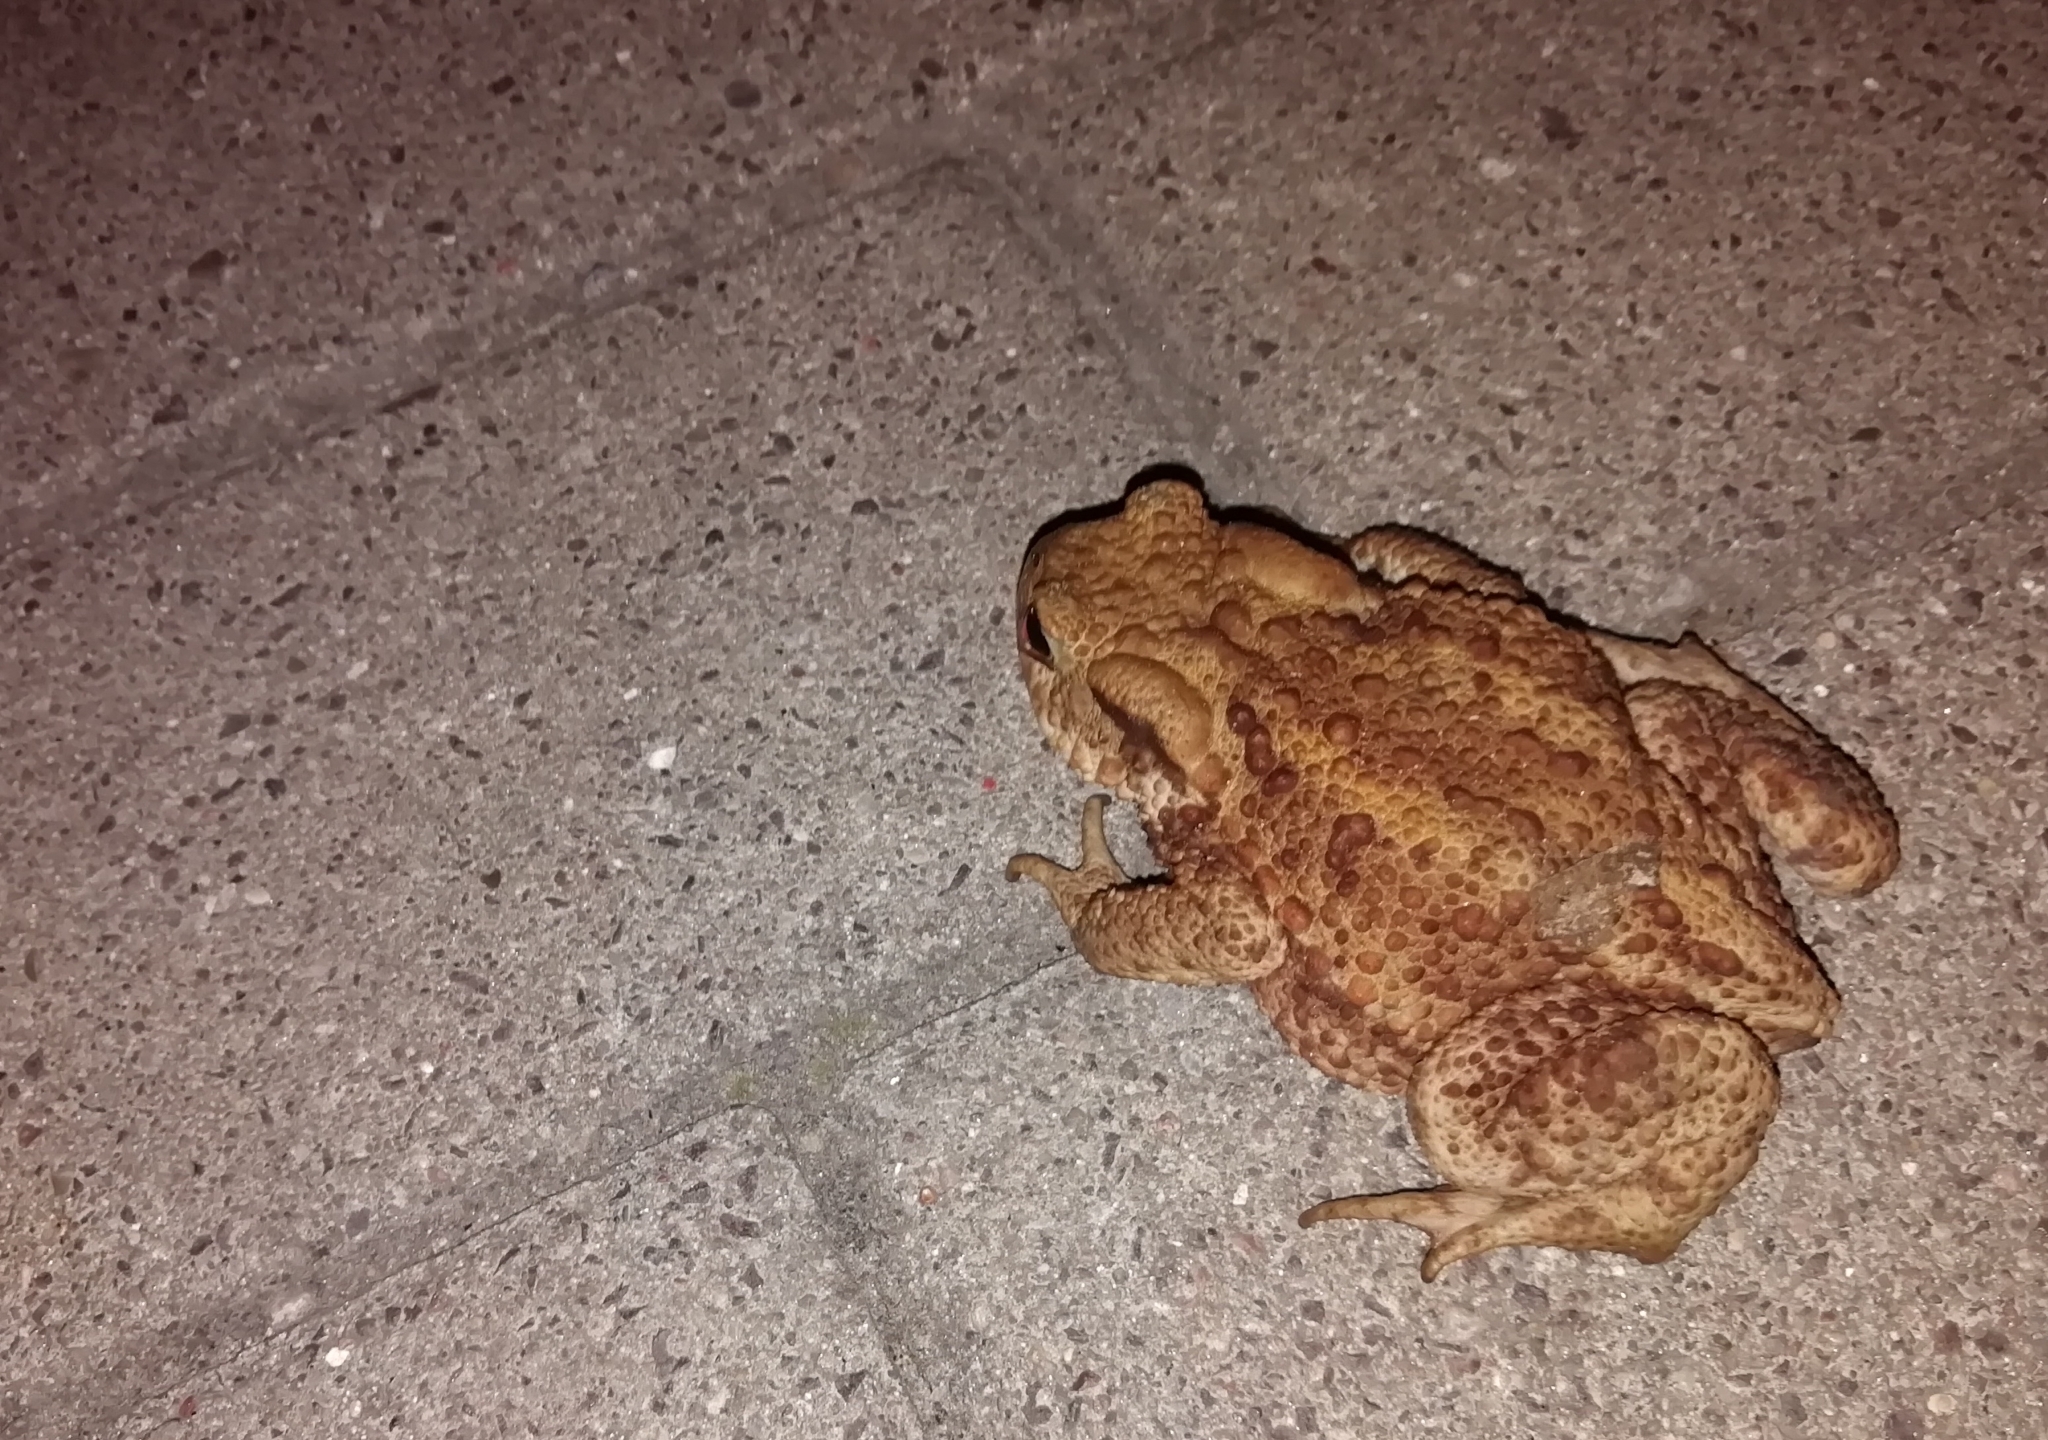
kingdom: Animalia
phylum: Chordata
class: Amphibia
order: Anura
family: Bufonidae
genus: Bufo
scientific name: Bufo bufo
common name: Common toad
